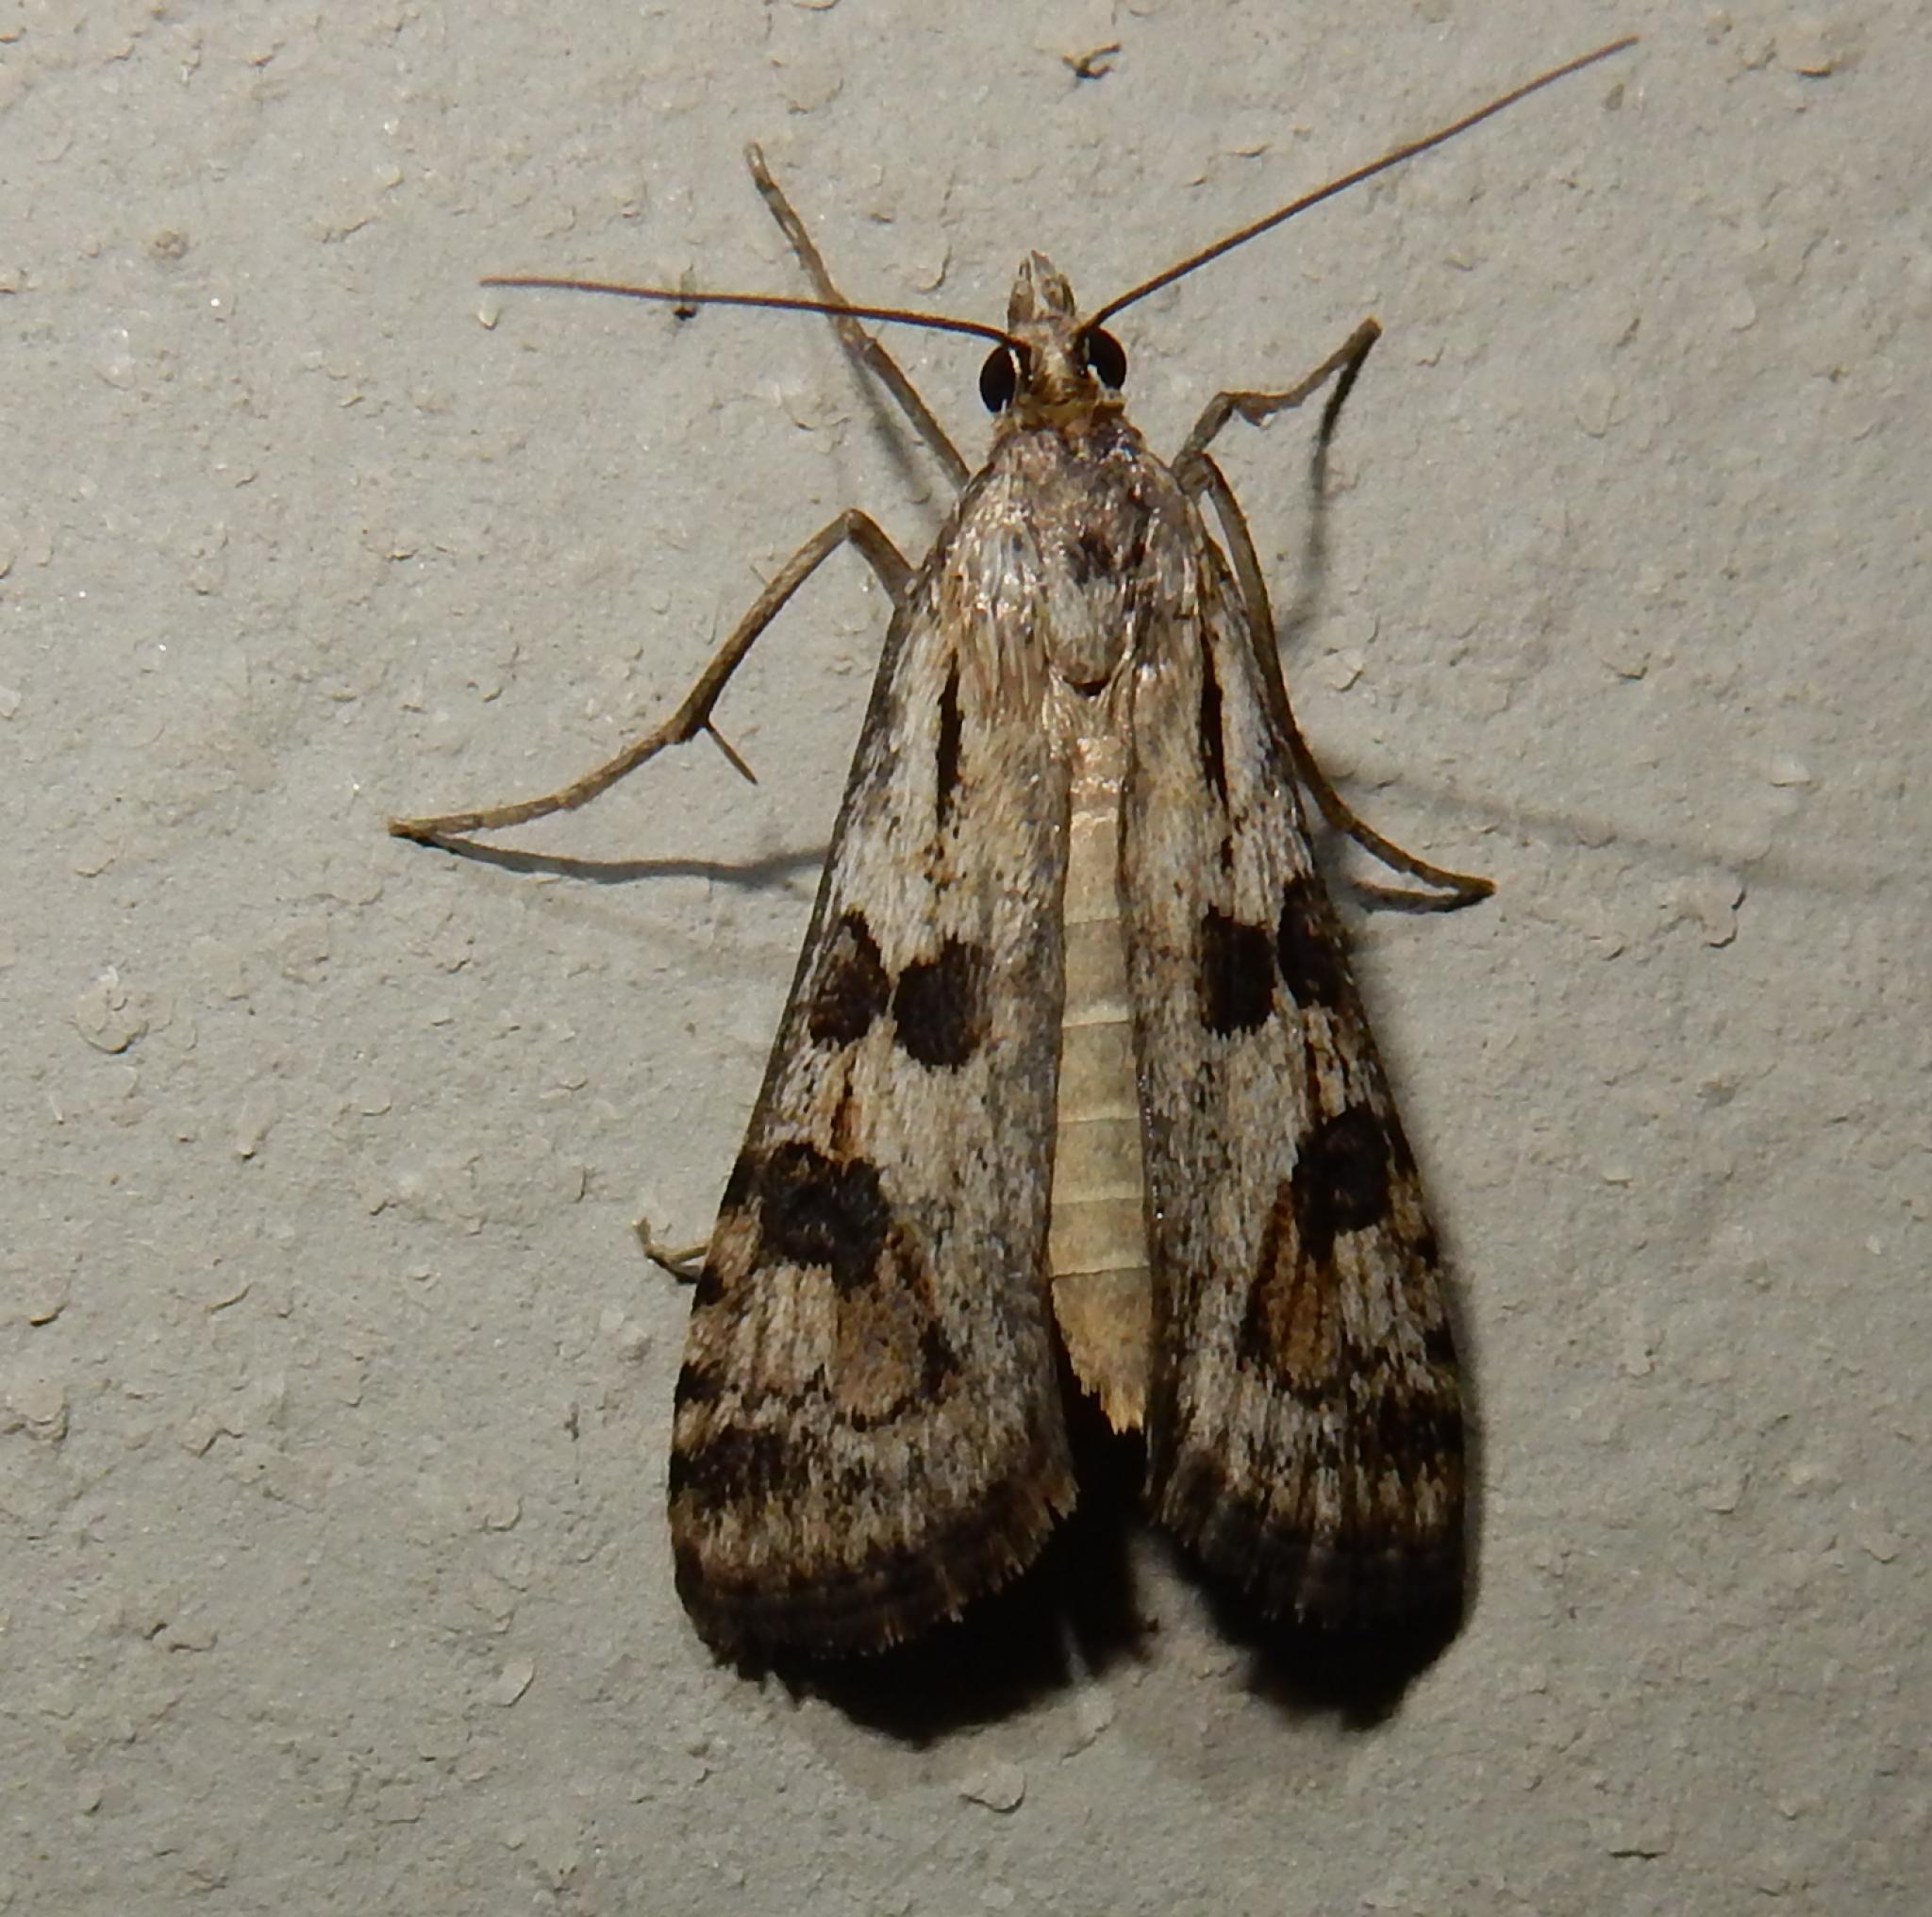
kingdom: Animalia
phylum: Arthropoda
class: Insecta
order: Lepidoptera
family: Crambidae
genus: Nomophila
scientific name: Nomophila noctuella
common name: Rush veneer
